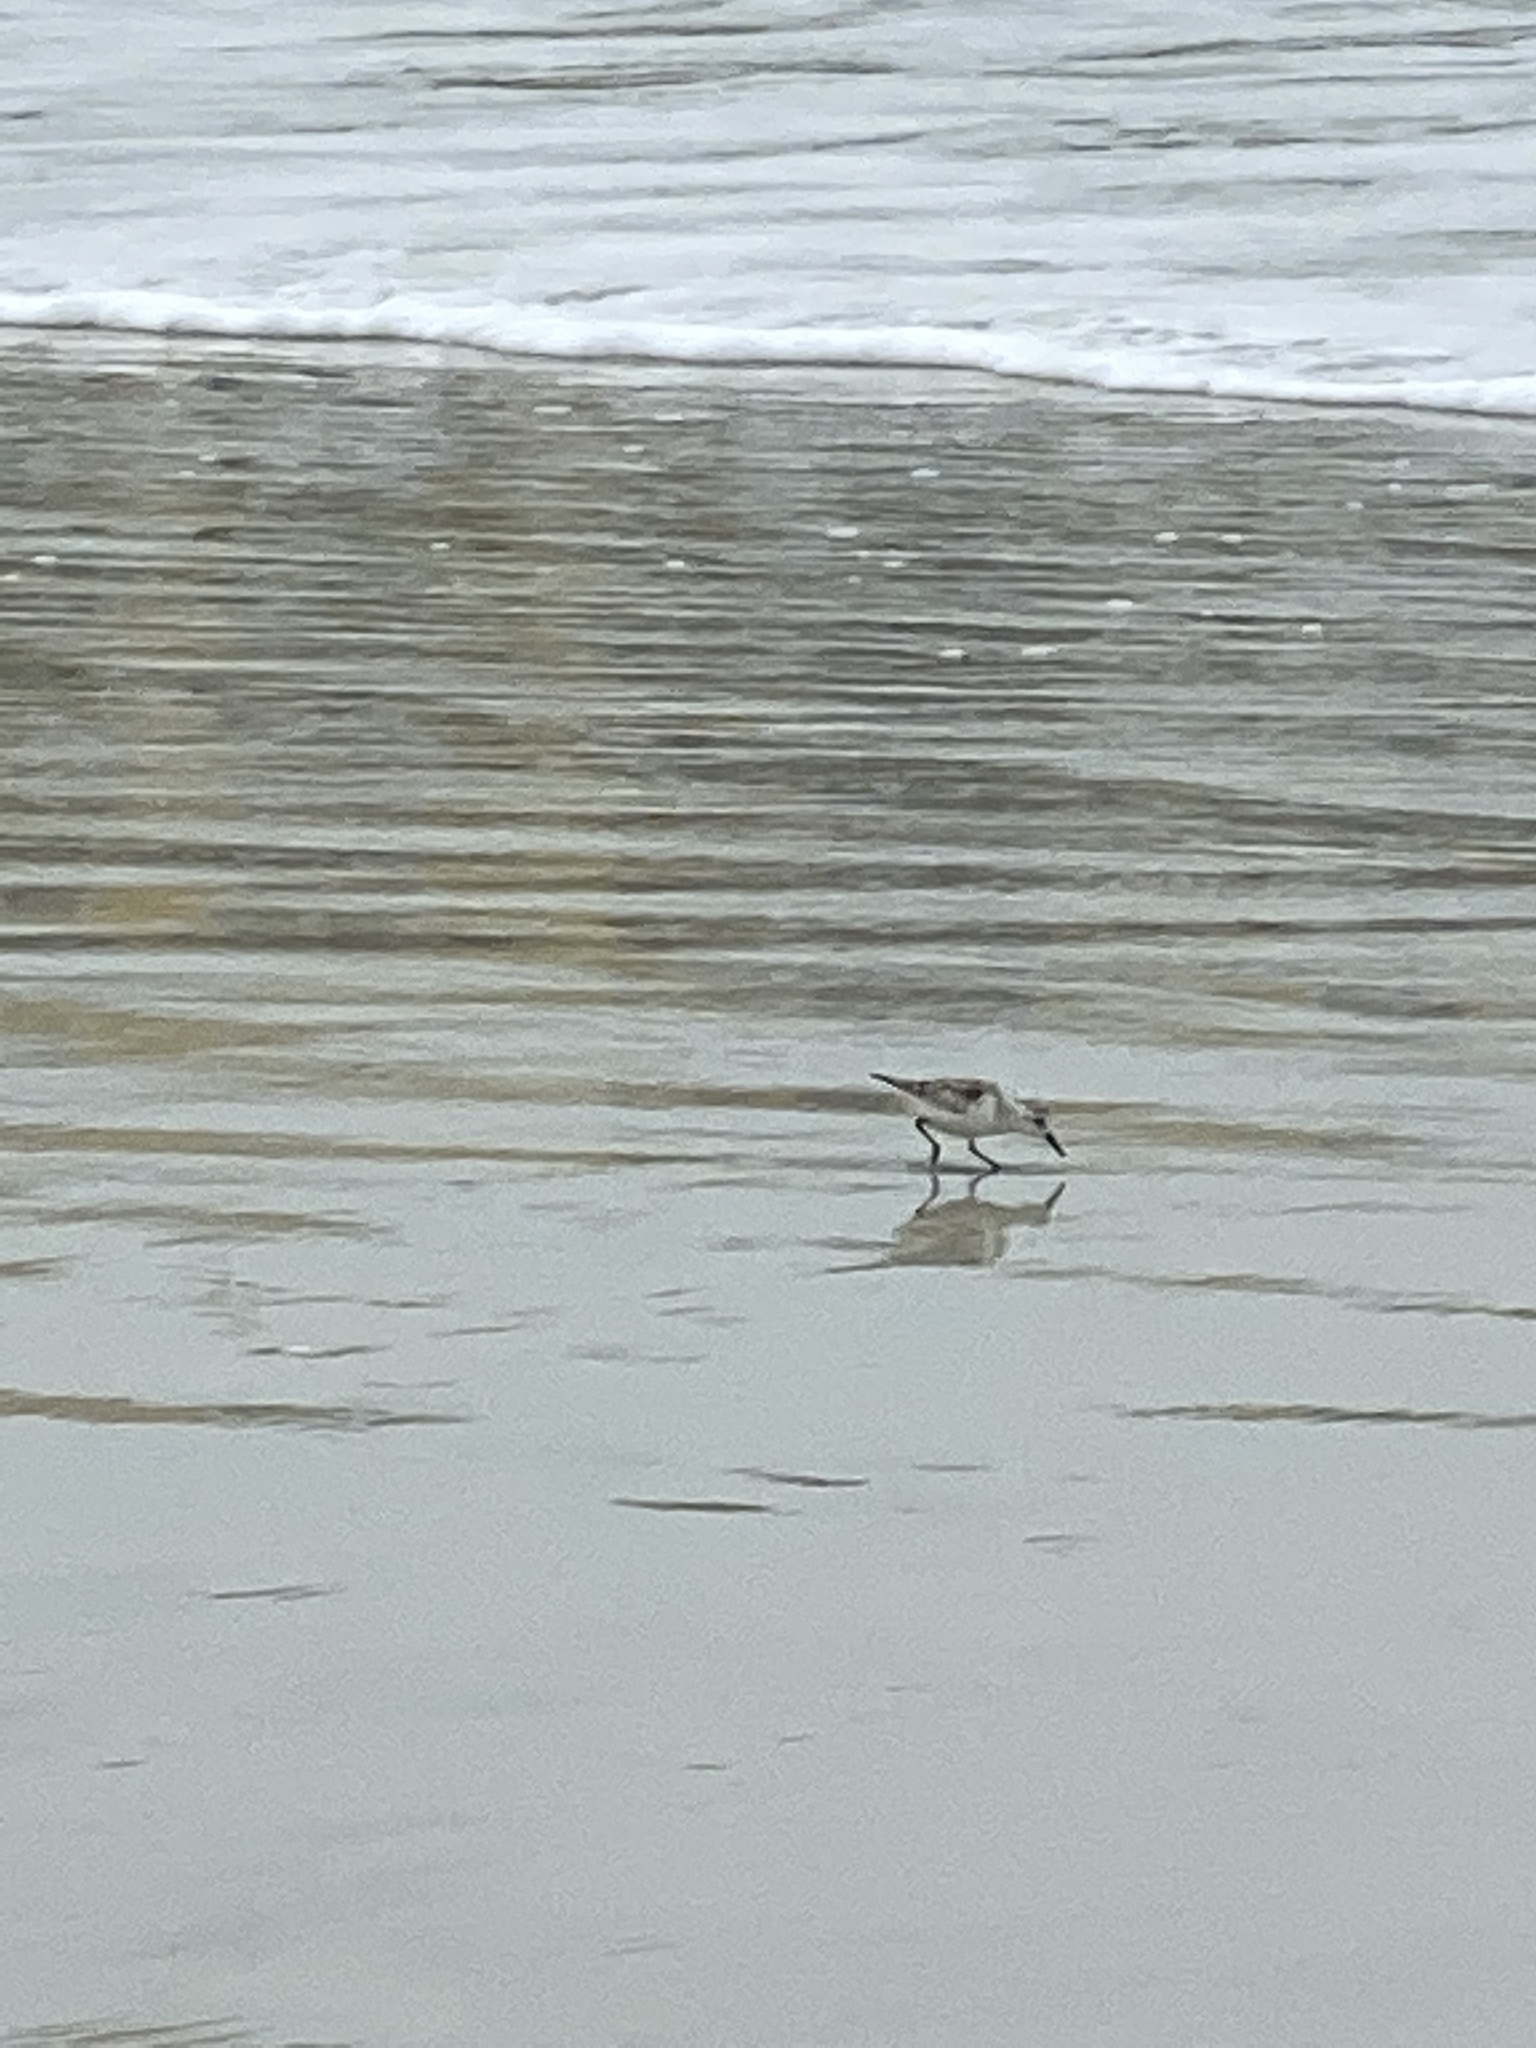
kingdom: Animalia
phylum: Chordata
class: Aves
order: Charadriiformes
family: Scolopacidae
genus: Calidris
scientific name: Calidris alba
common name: Sanderling
